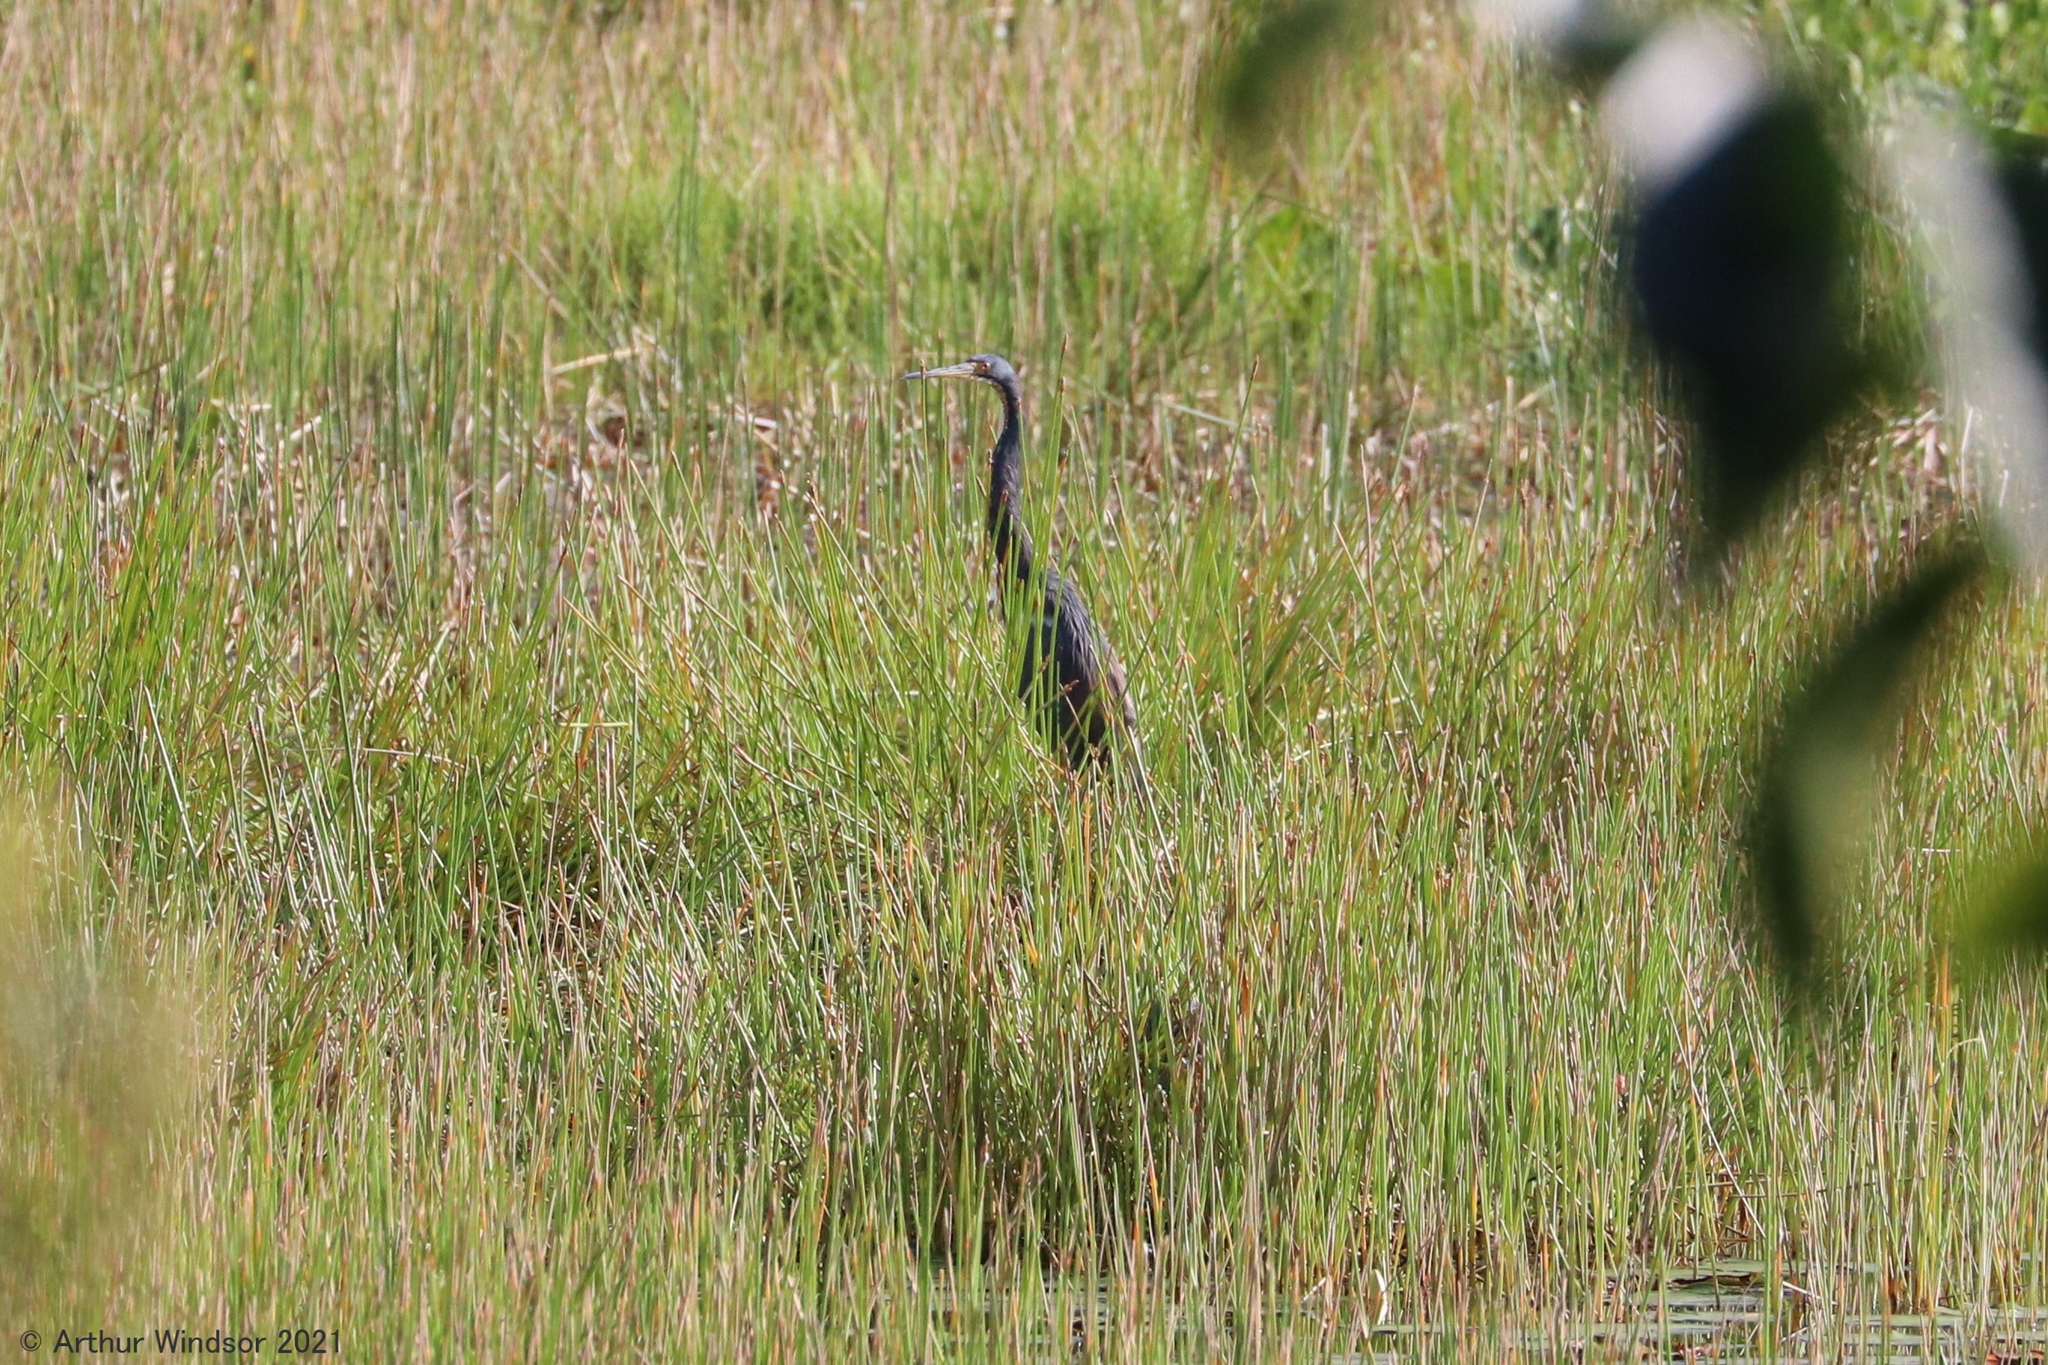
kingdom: Animalia
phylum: Chordata
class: Aves
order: Pelecaniformes
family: Ardeidae
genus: Egretta
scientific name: Egretta tricolor
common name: Tricolored heron
